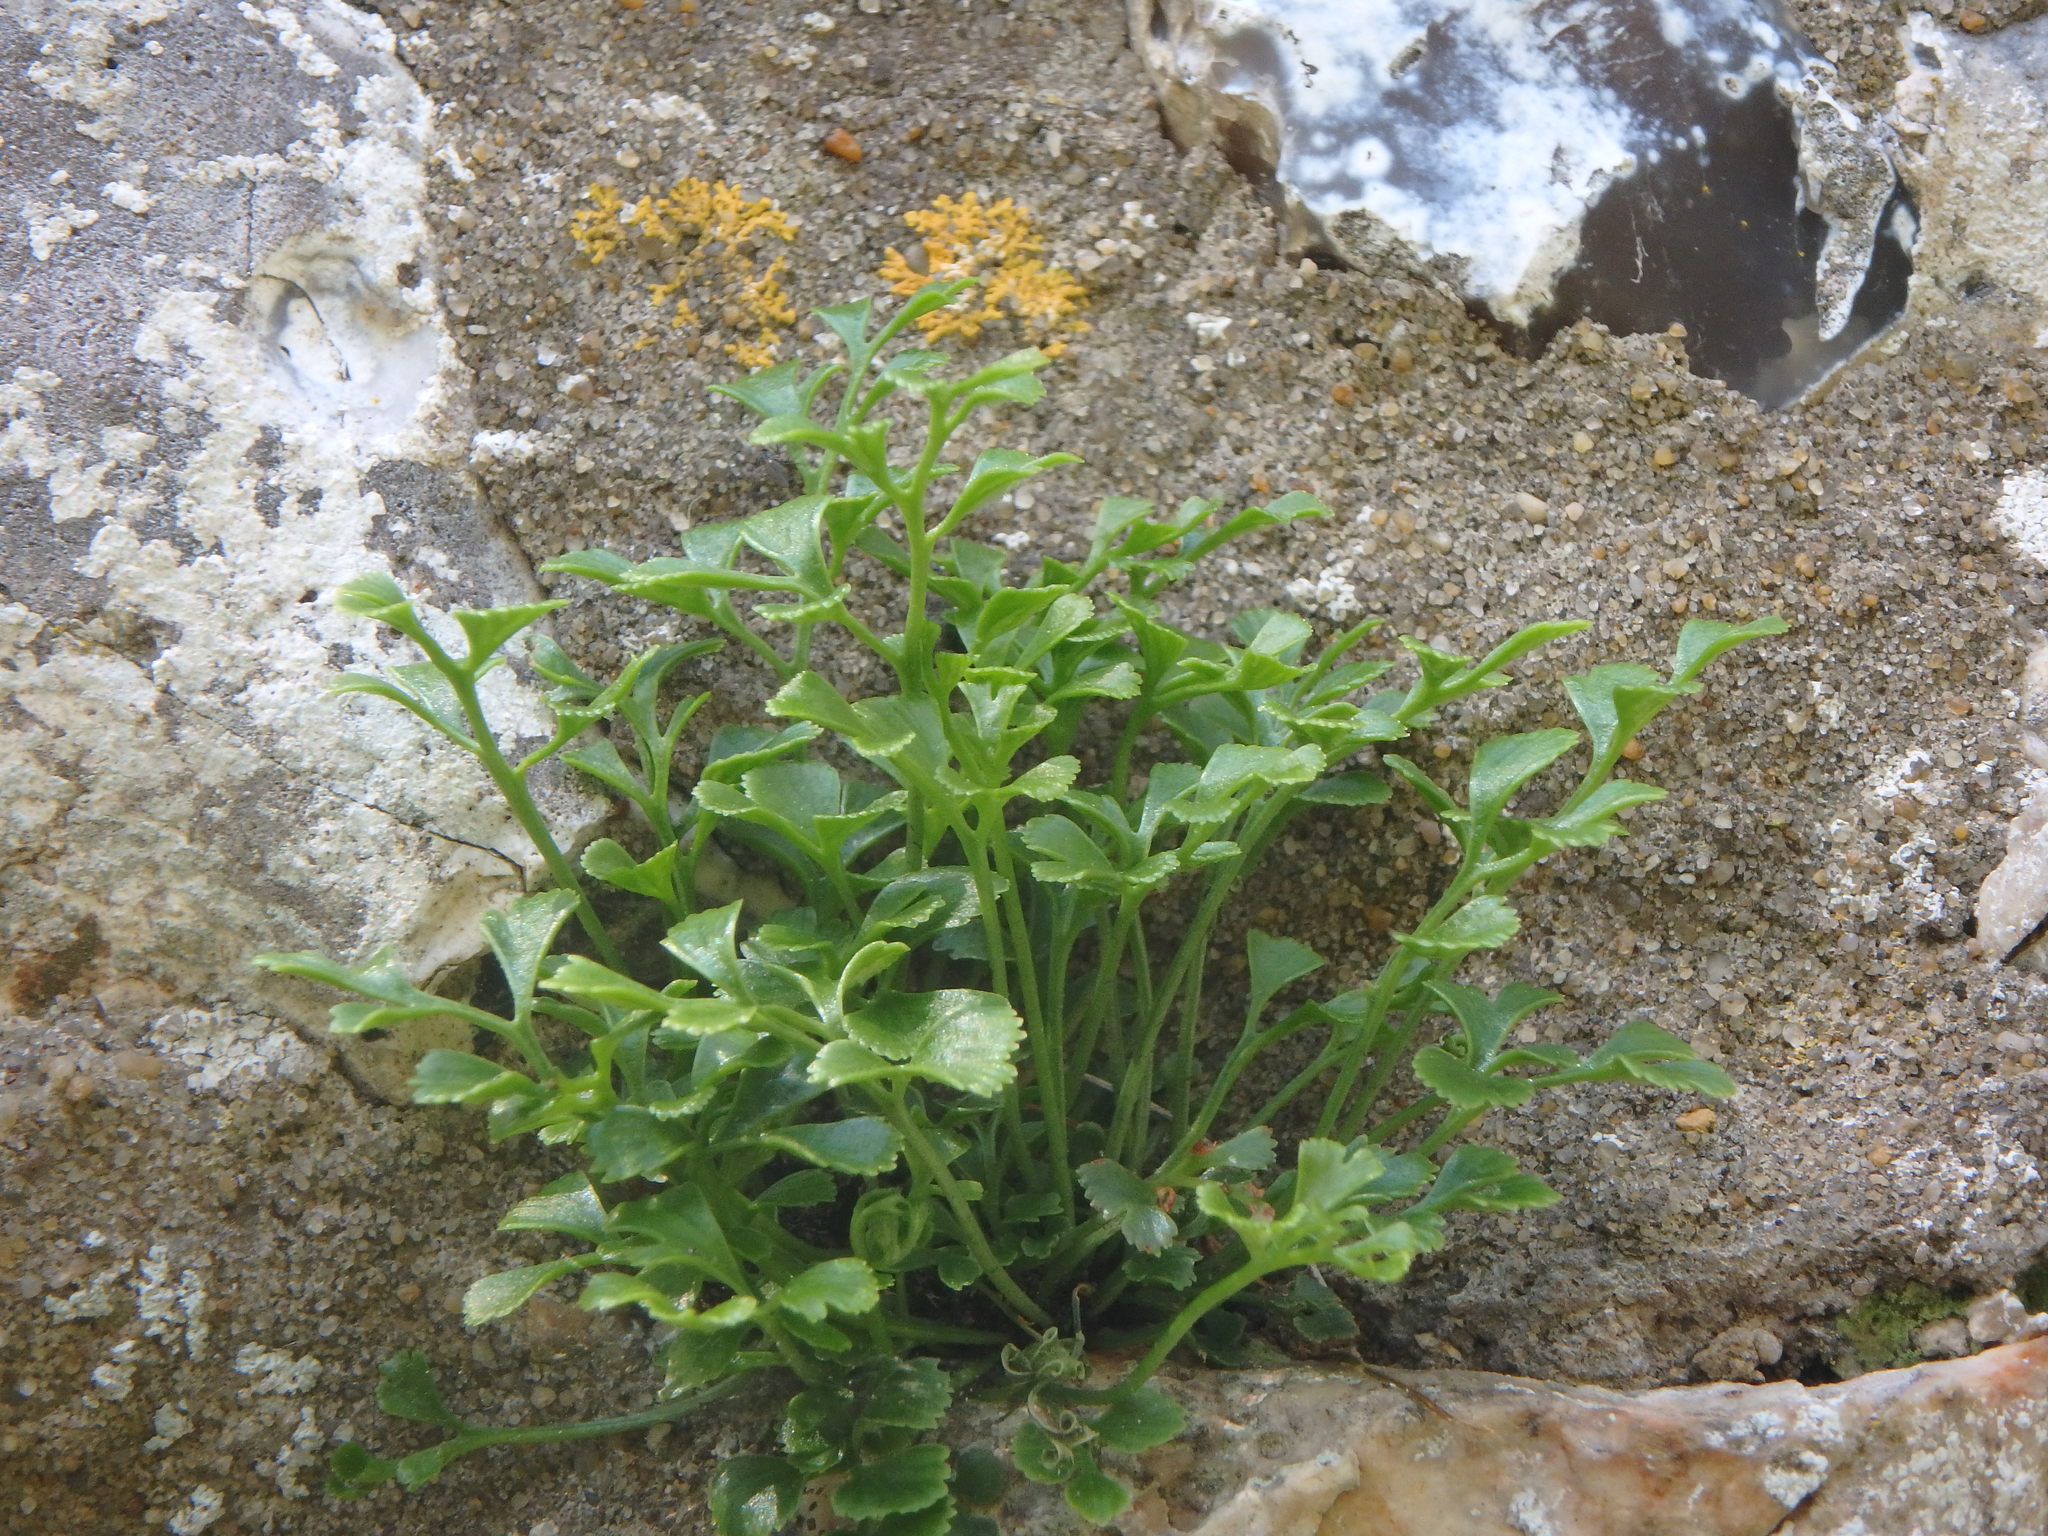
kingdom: Plantae
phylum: Tracheophyta
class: Polypodiopsida
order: Polypodiales
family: Aspleniaceae
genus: Asplenium
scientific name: Asplenium ruta-muraria
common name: Wall-rue
